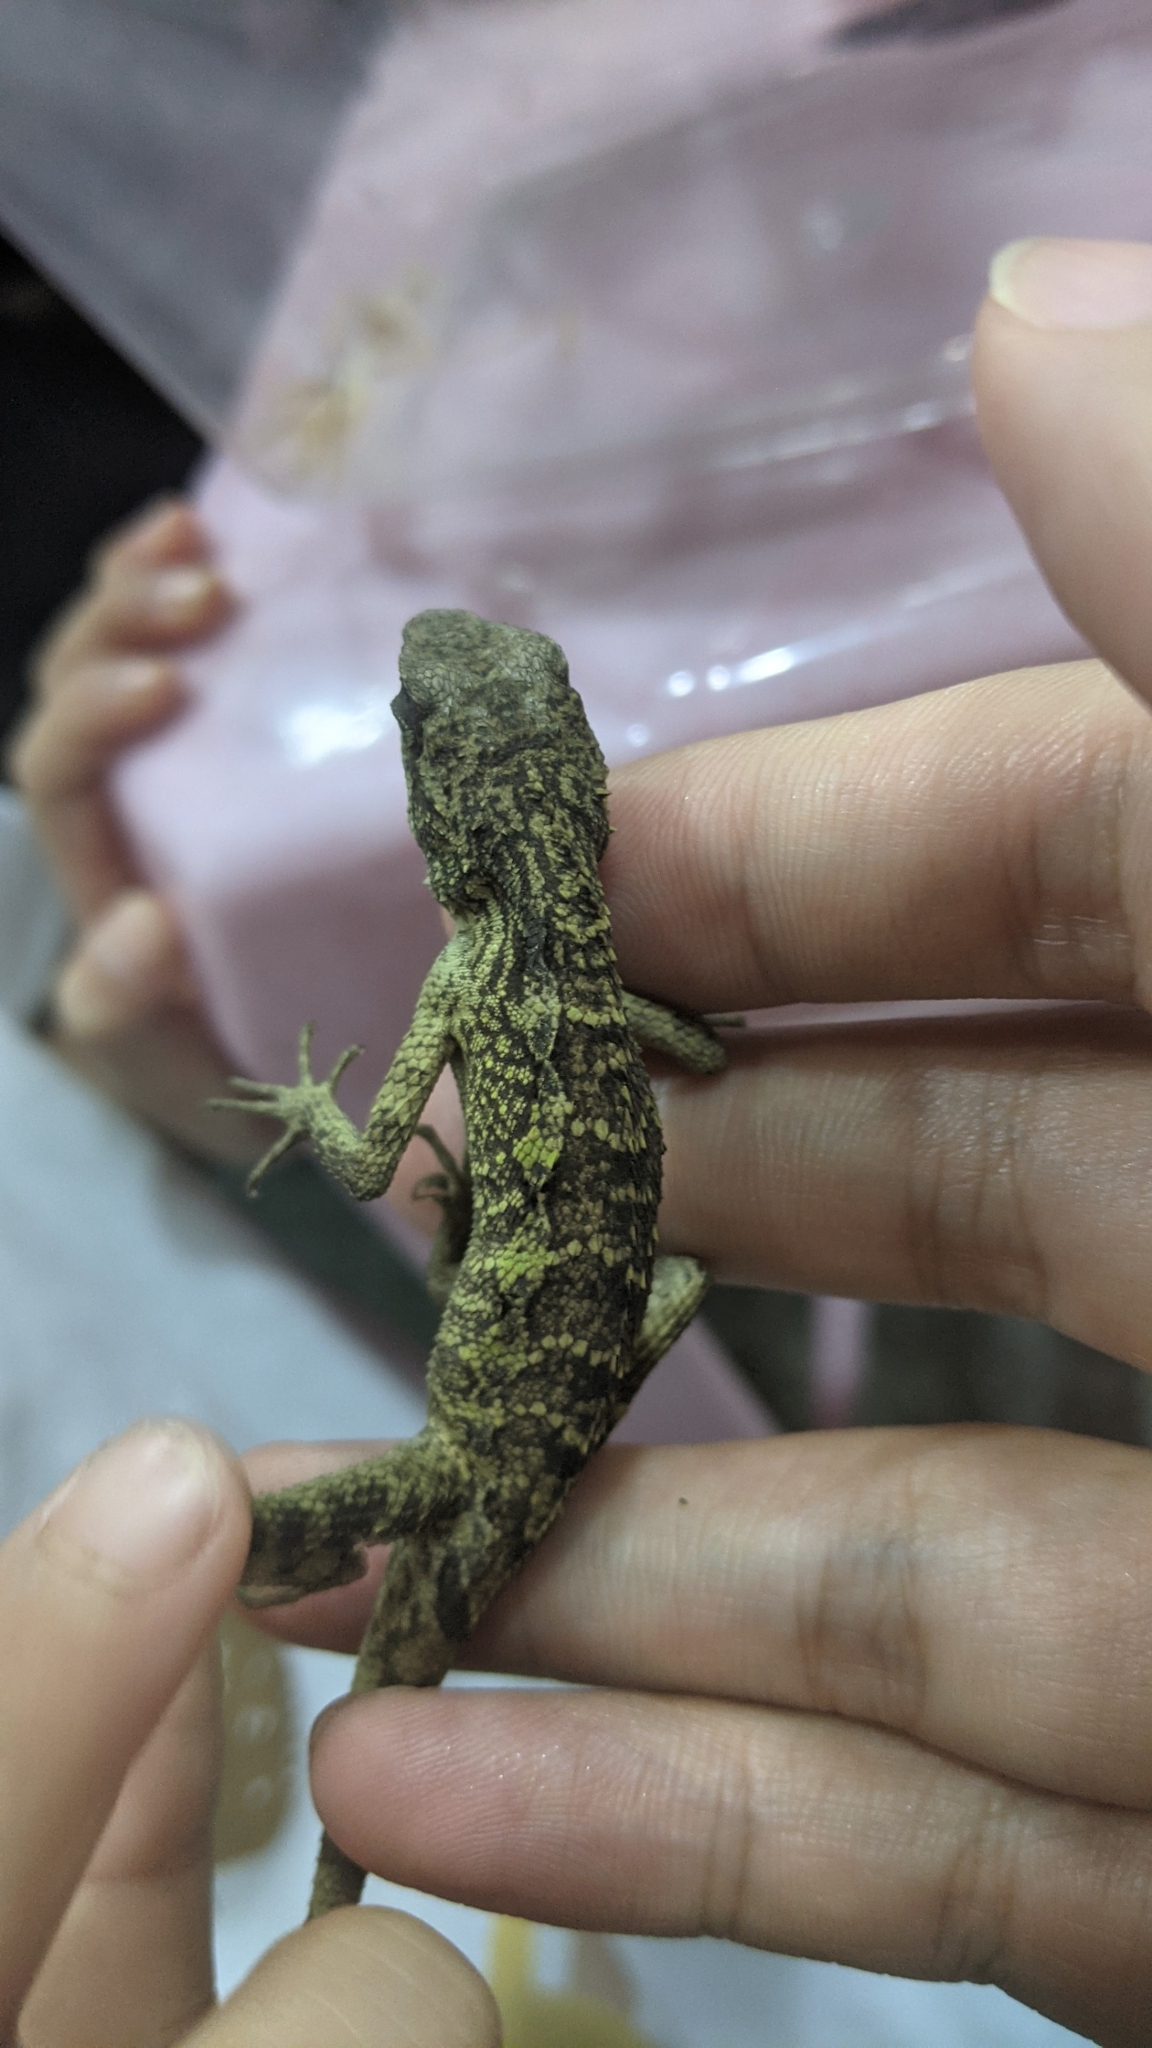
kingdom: Animalia
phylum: Chordata
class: Squamata
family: Agamidae
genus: Diploderma
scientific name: Diploderma swinhonis
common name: Taiwan japalure
